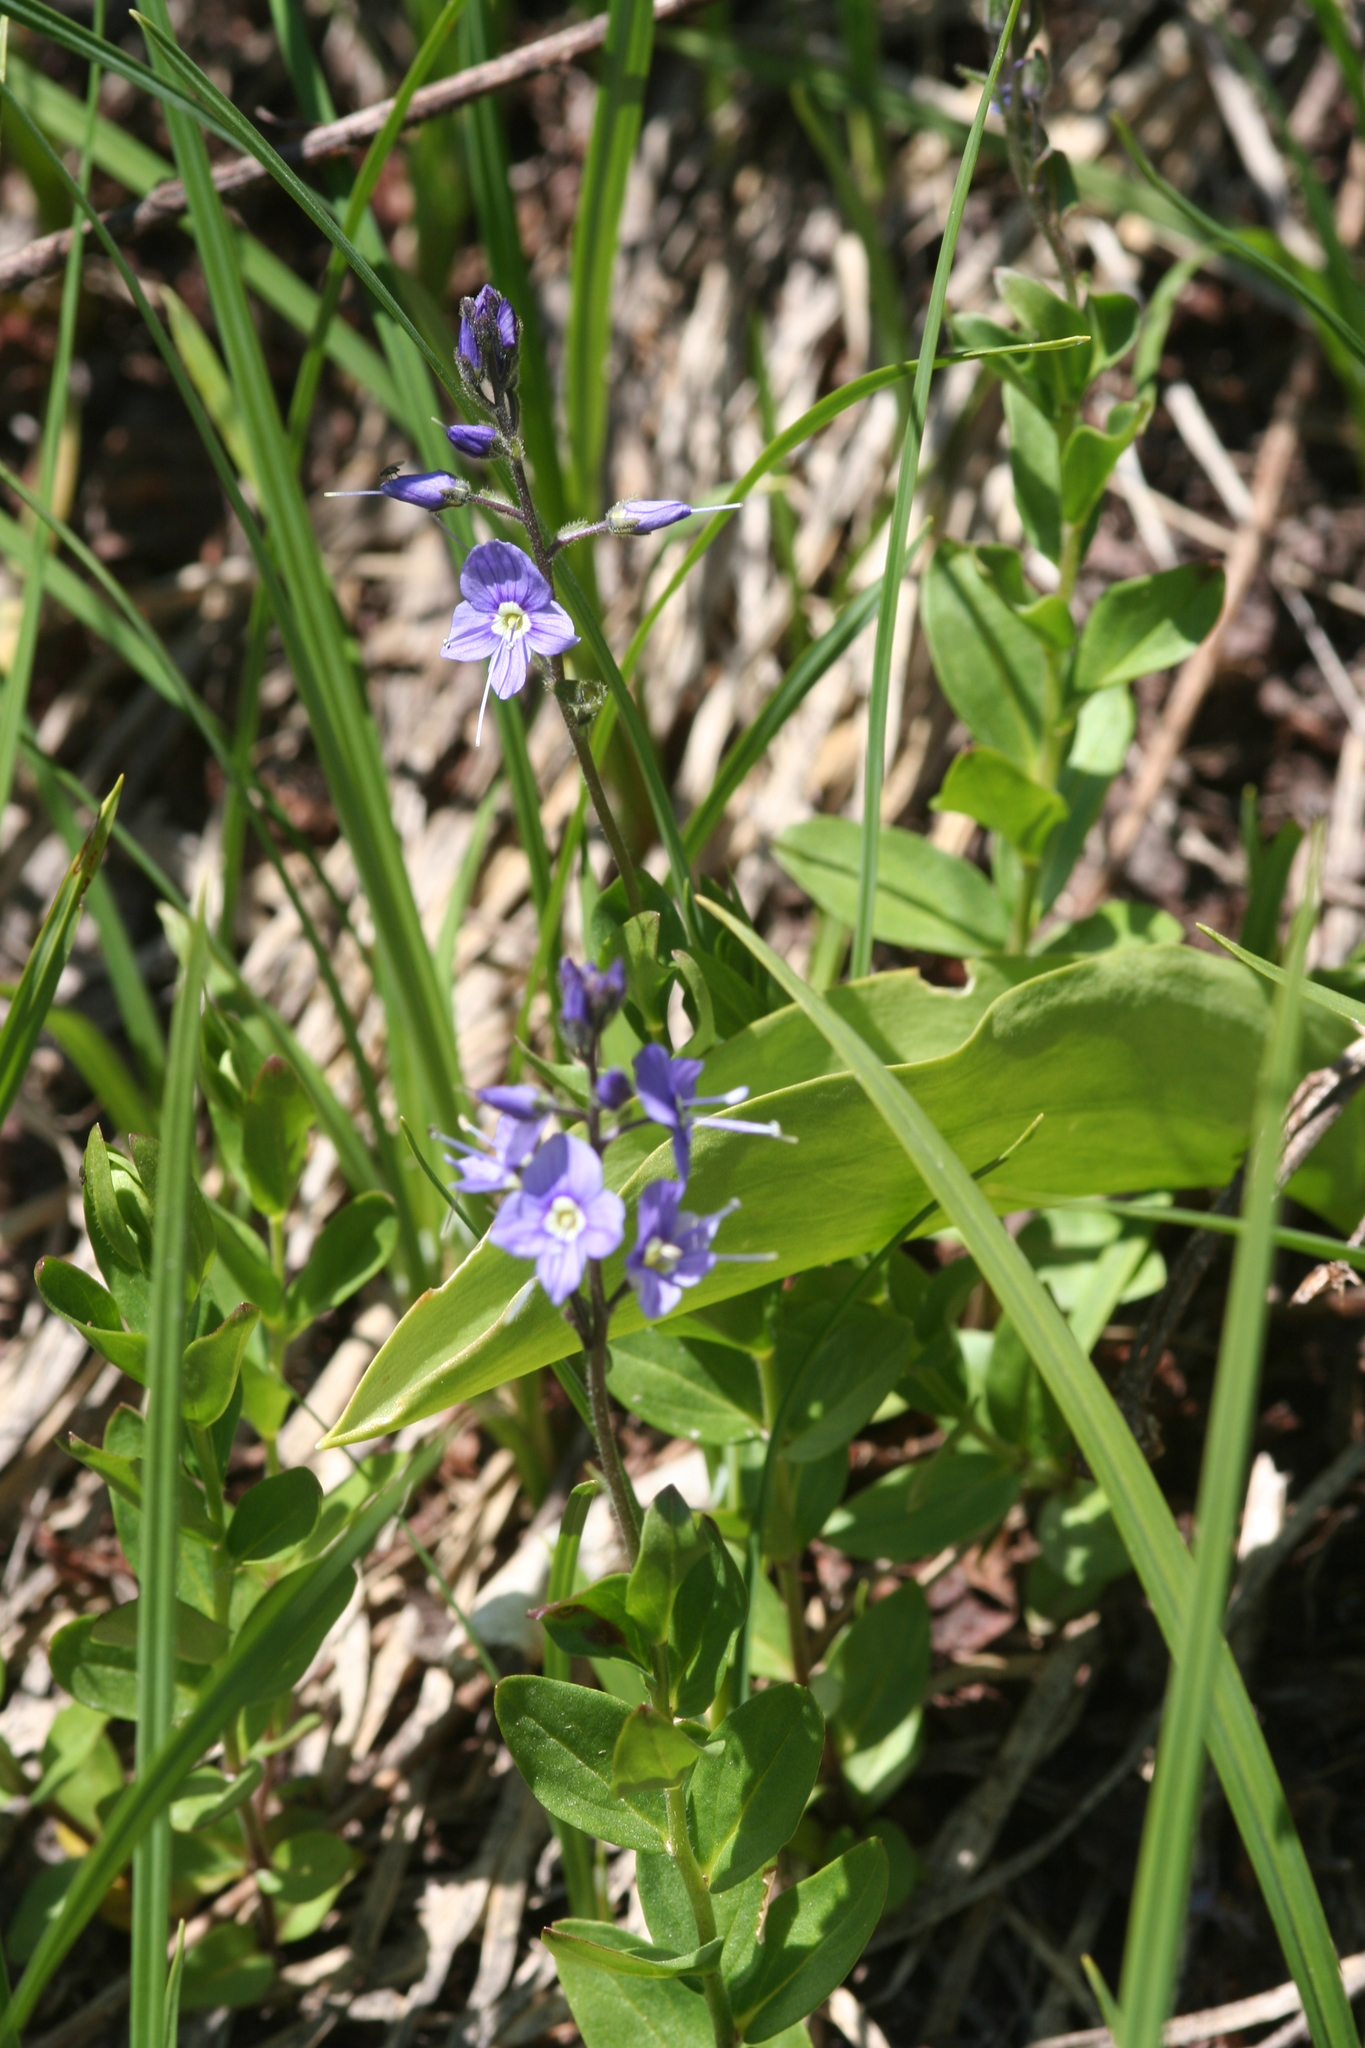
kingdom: Plantae
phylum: Tracheophyta
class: Magnoliopsida
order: Lamiales
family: Plantaginaceae
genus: Veronica
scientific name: Veronica cusickii
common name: Cusick's speedwell
